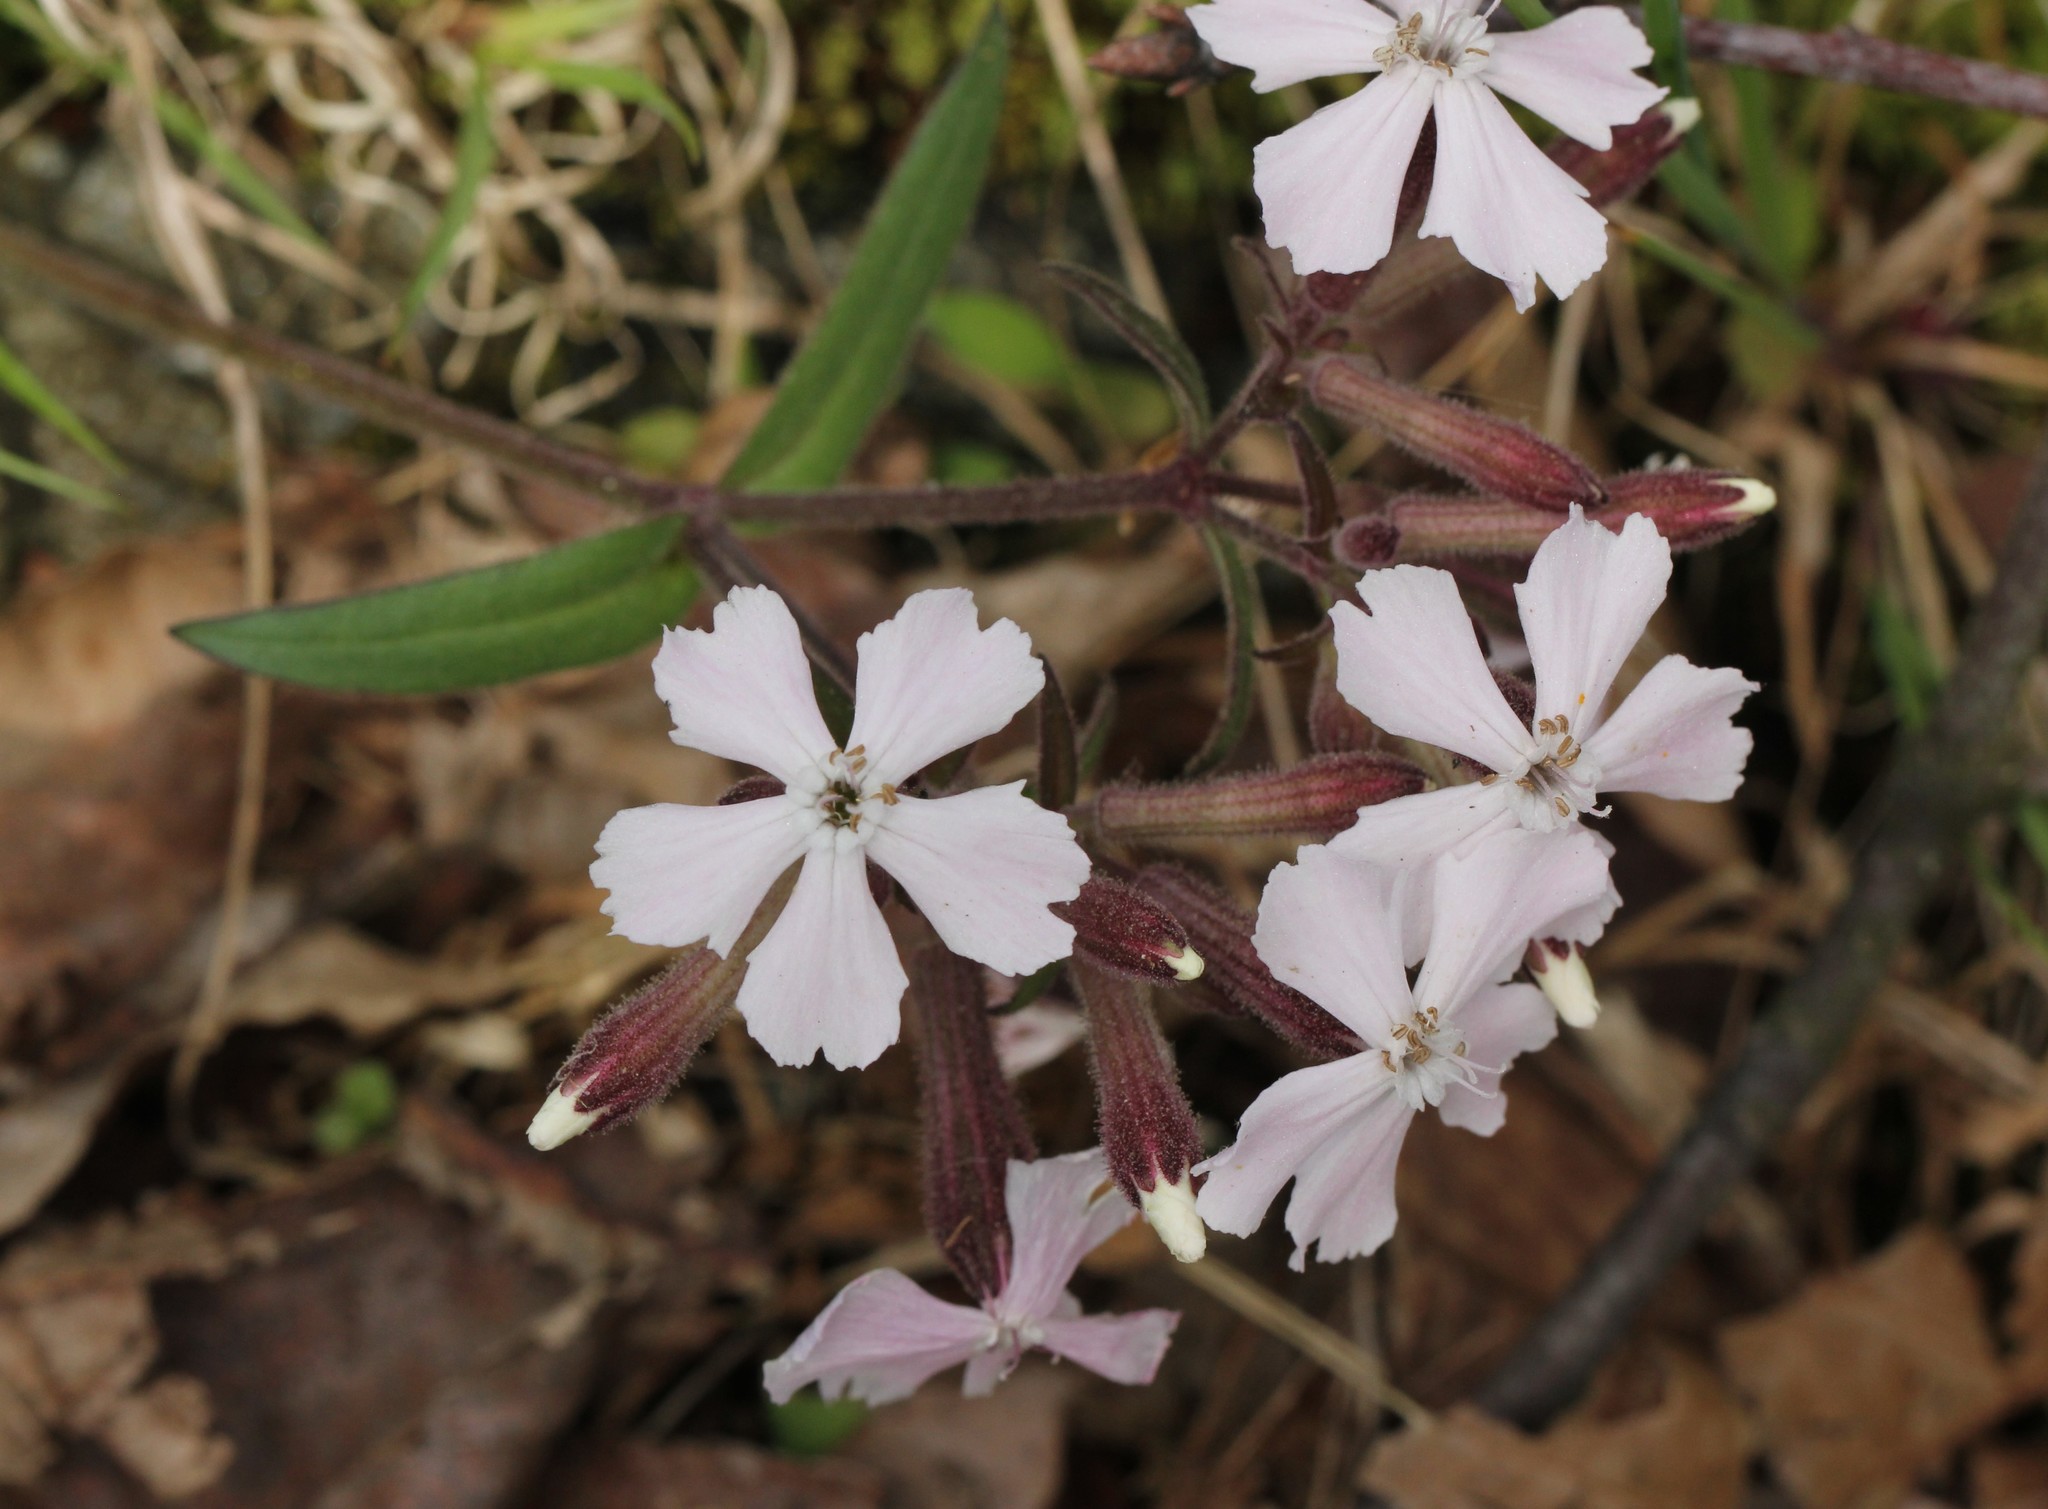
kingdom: Plantae
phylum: Tracheophyta
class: Magnoliopsida
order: Caryophyllales
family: Caryophyllaceae
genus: Silene
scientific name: Silene caroliniana
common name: Sticky catchfly
